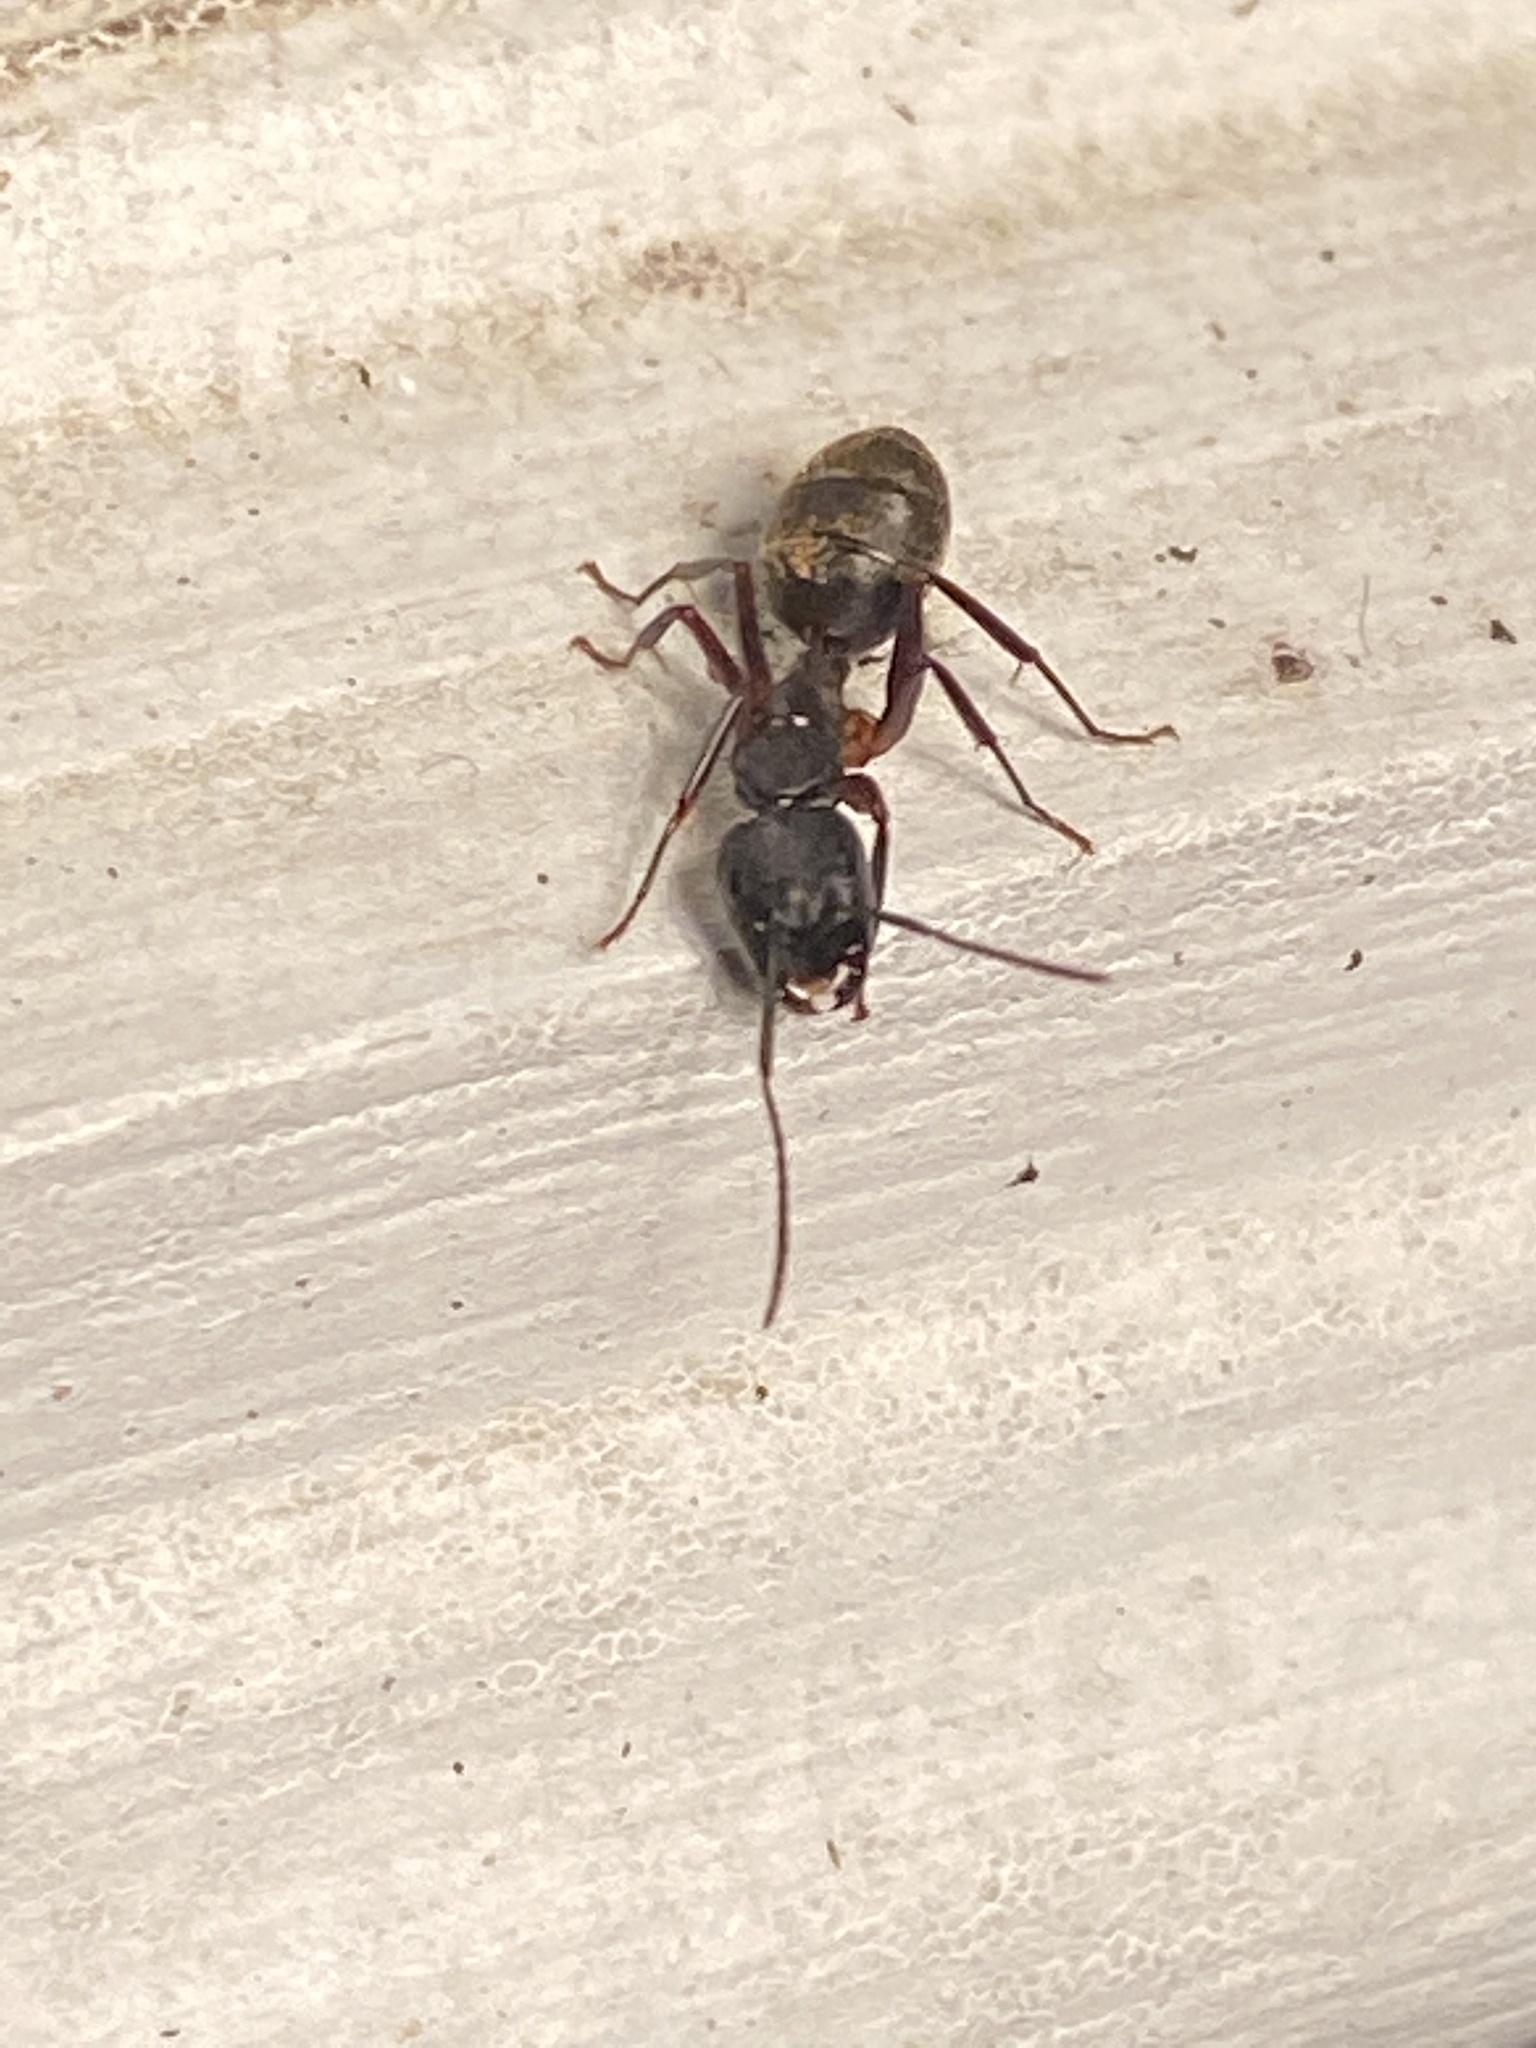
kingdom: Animalia
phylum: Arthropoda
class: Insecta
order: Hymenoptera
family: Formicidae
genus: Camponotus
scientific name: Camponotus chromaiodes
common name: Red carpenter ant
